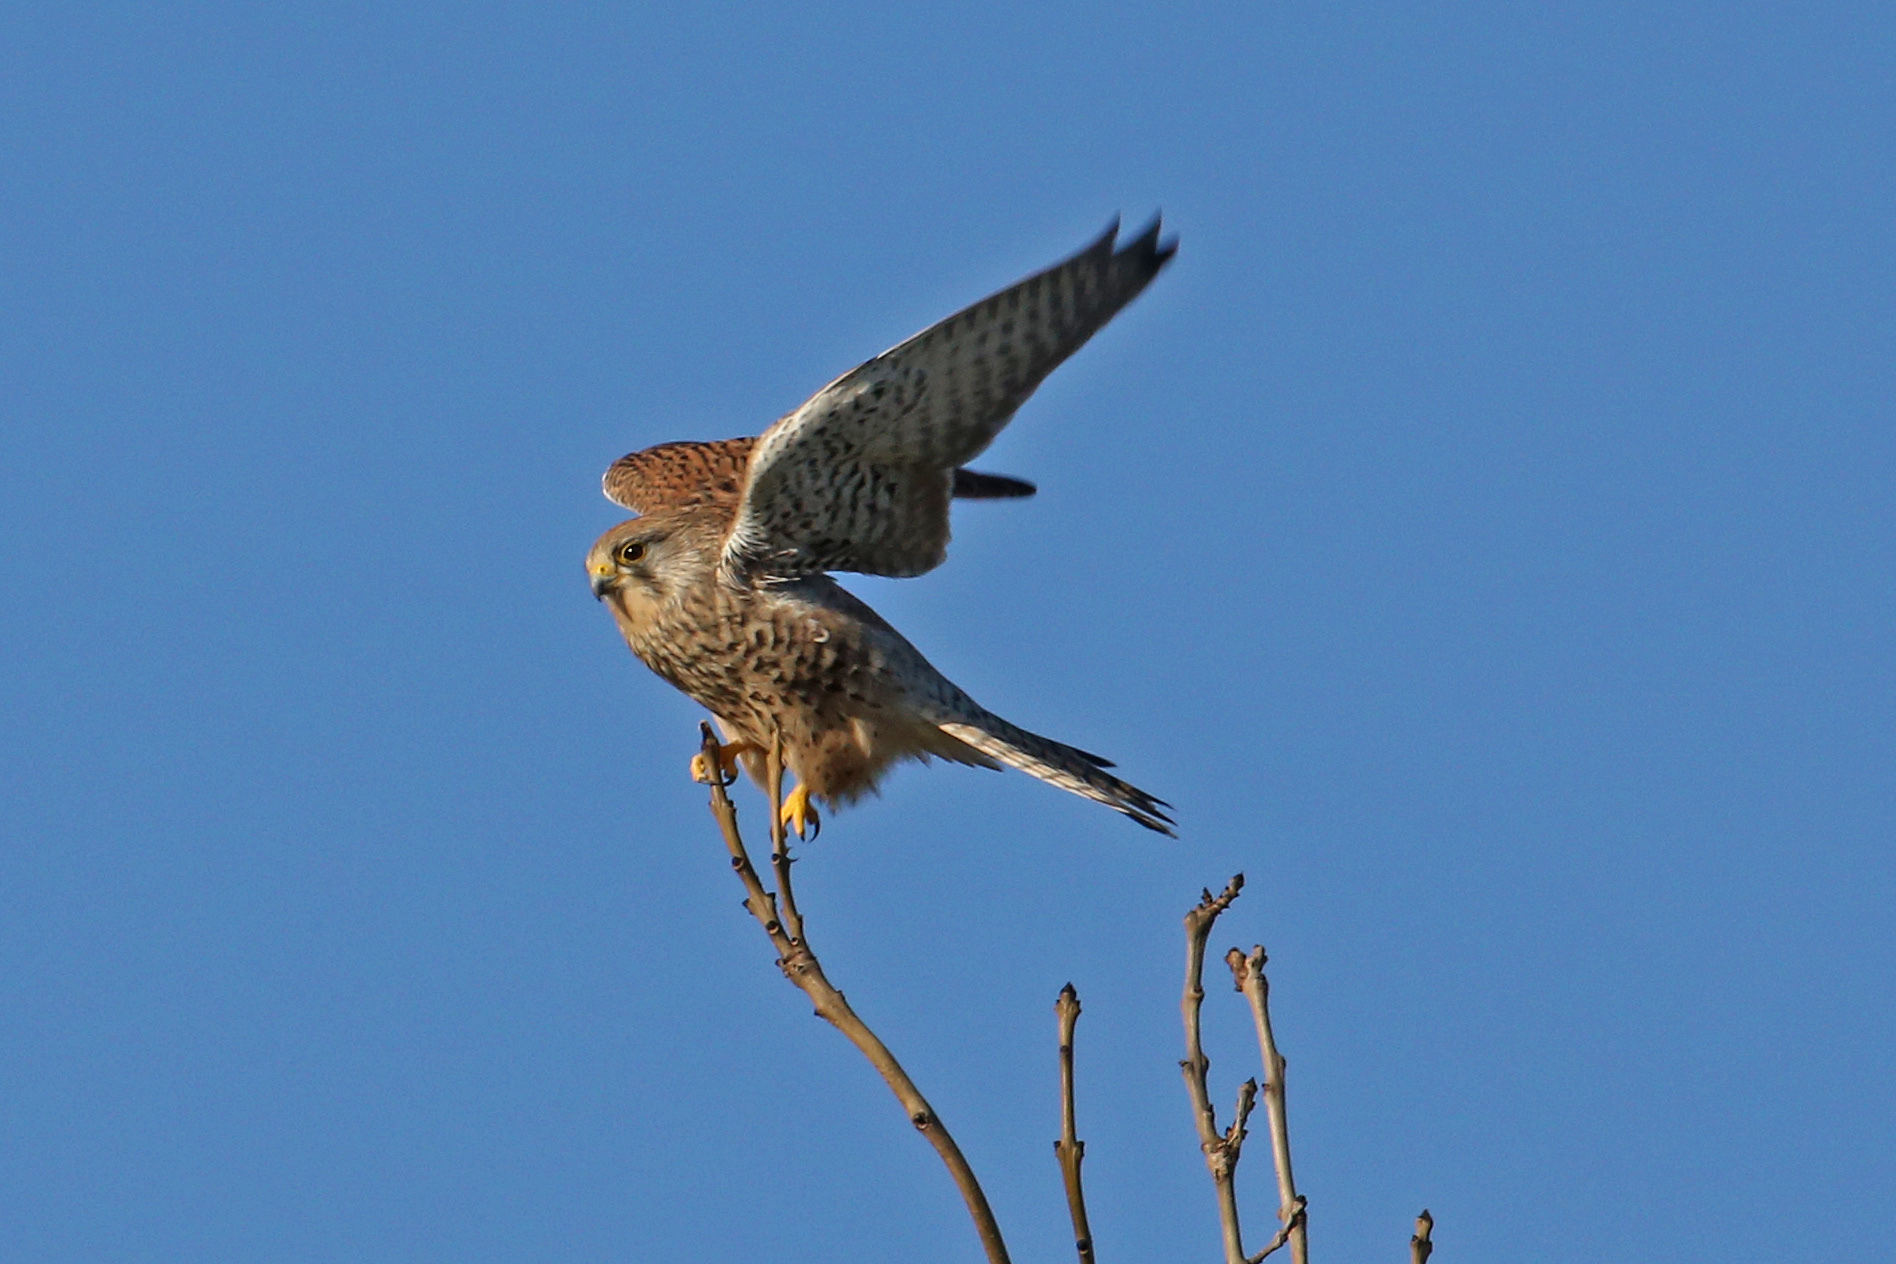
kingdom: Animalia
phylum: Chordata
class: Aves
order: Falconiformes
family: Falconidae
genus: Falco
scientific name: Falco tinnunculus
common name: Common kestrel
